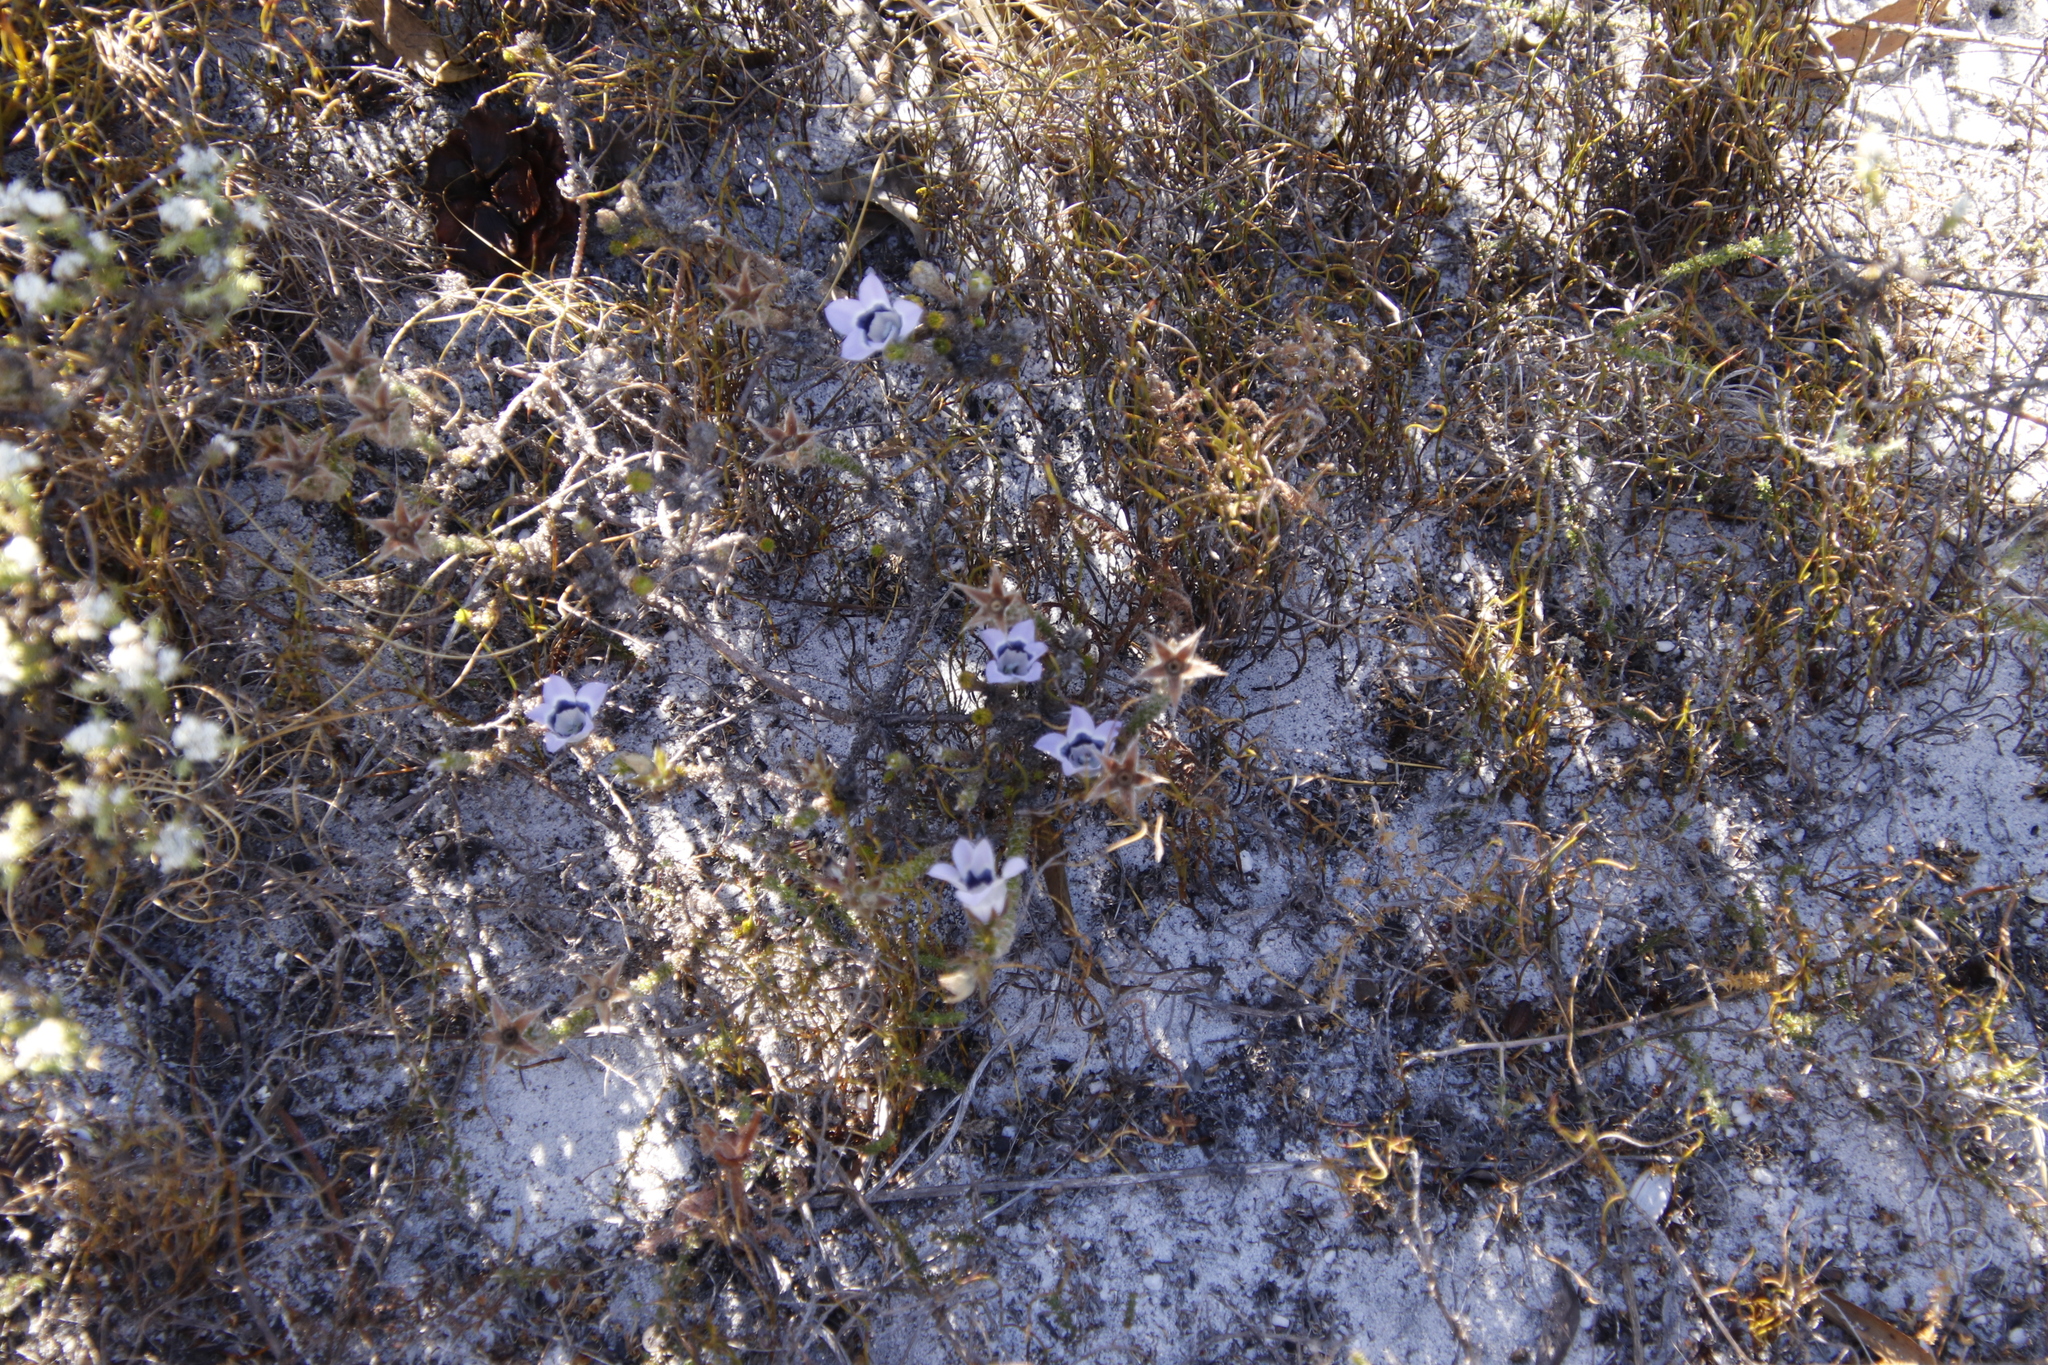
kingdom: Plantae
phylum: Tracheophyta
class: Magnoliopsida
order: Asterales
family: Campanulaceae
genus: Roella
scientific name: Roella ciliata
